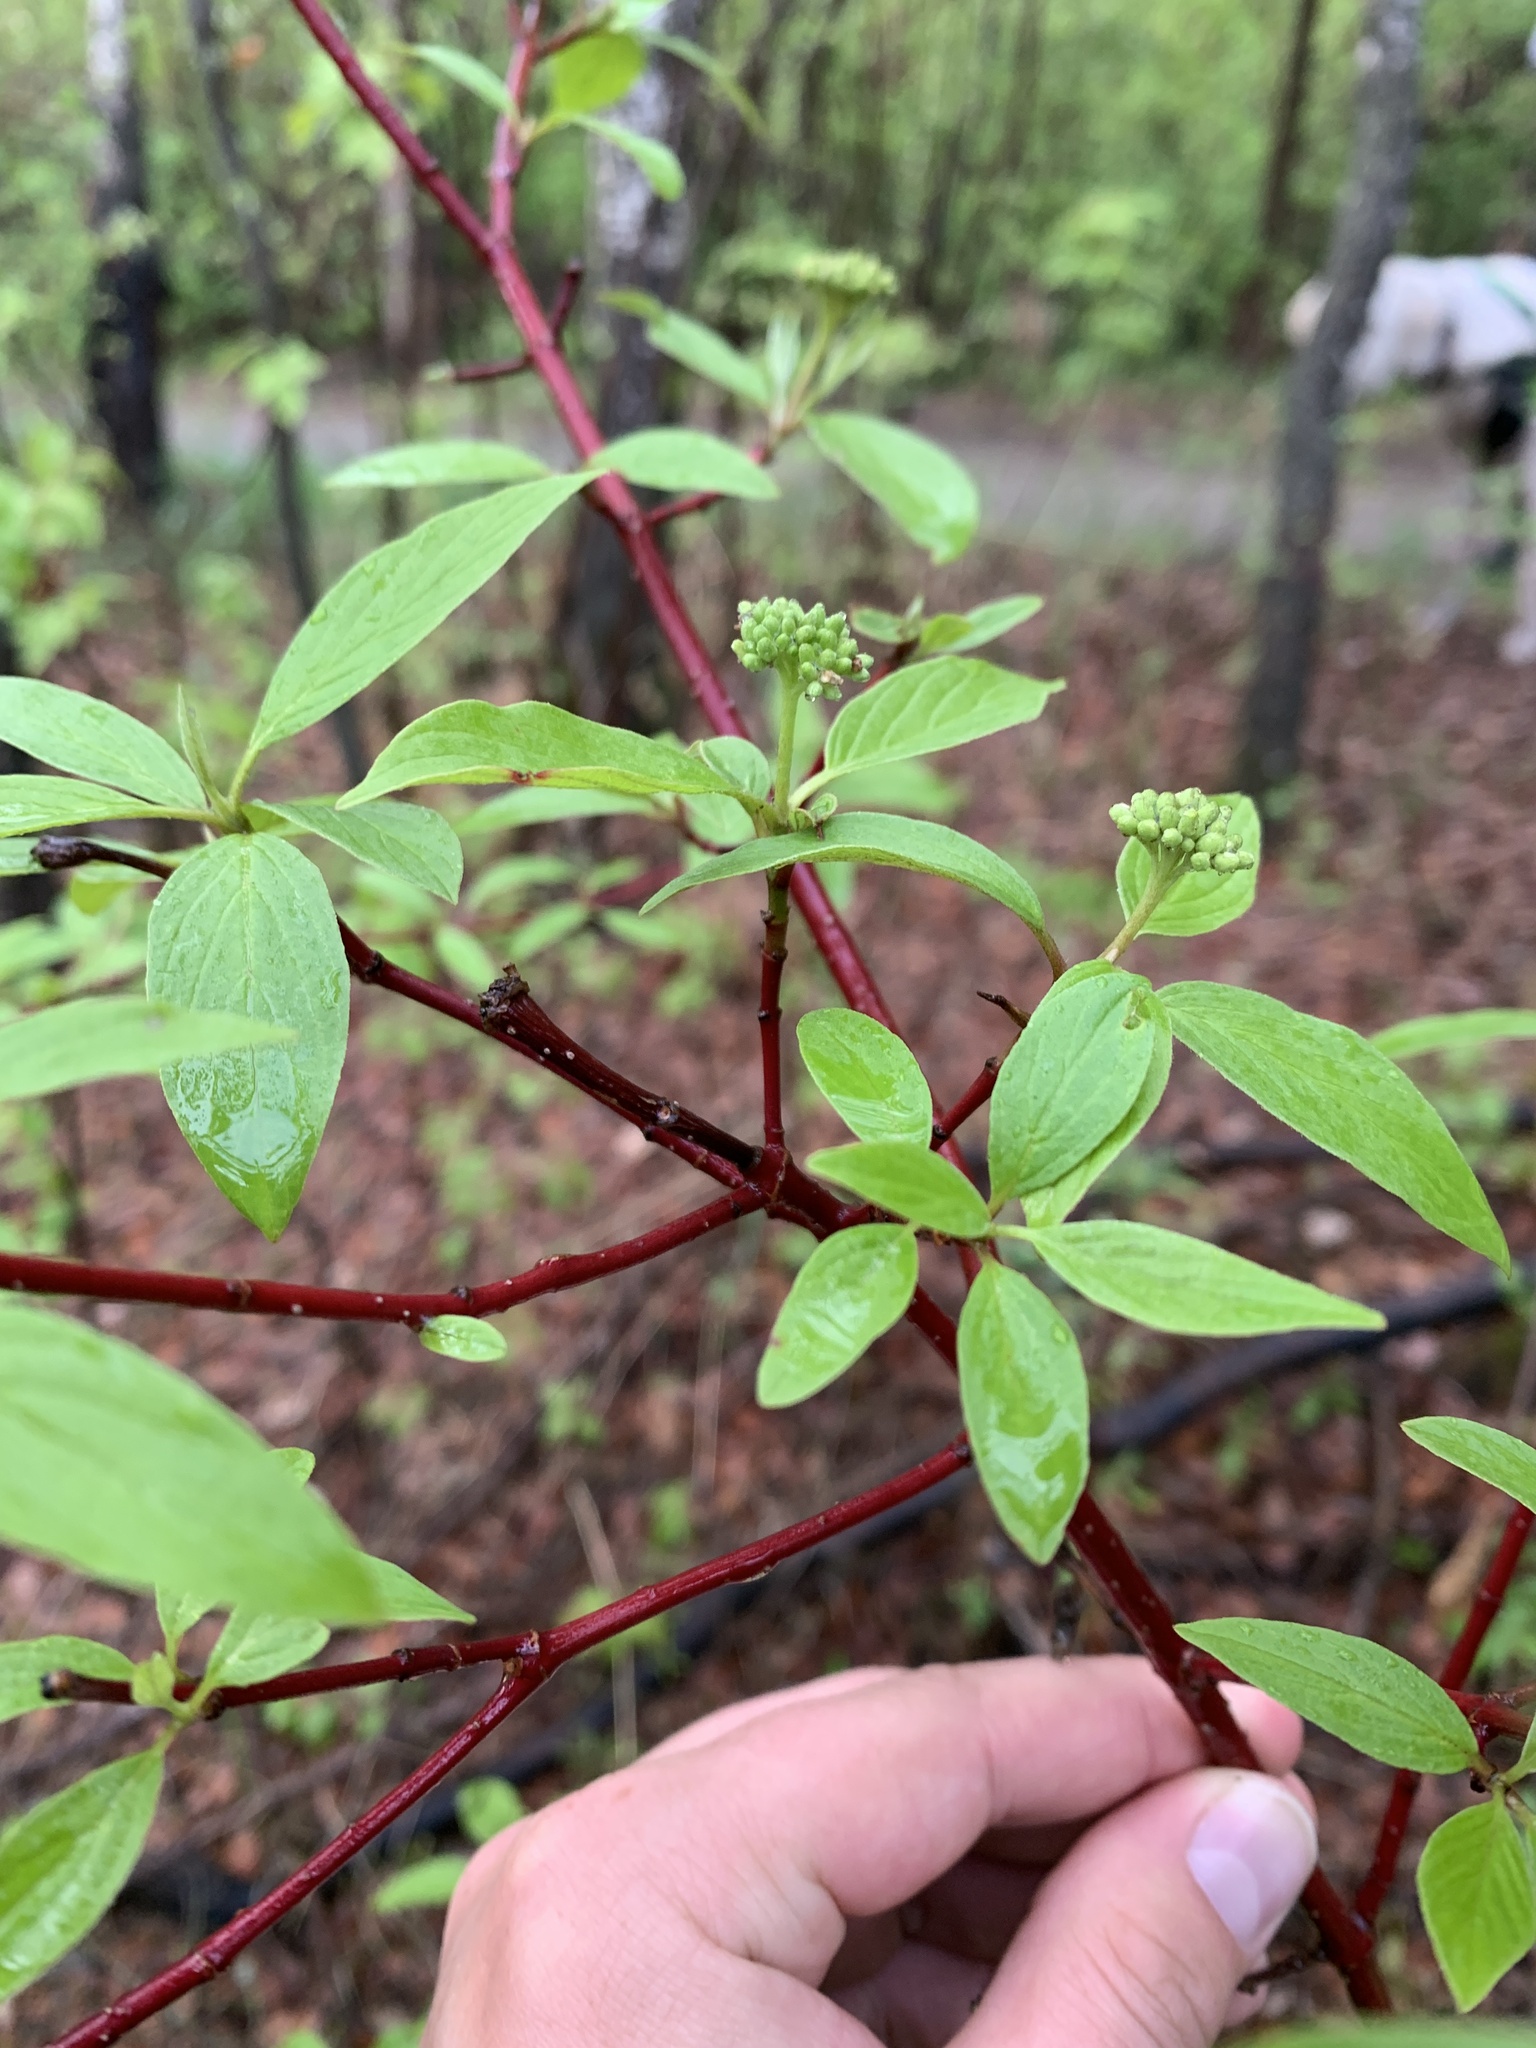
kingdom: Plantae
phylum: Tracheophyta
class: Magnoliopsida
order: Cornales
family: Cornaceae
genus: Cornus
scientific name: Cornus sericea
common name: Red-osier dogwood
